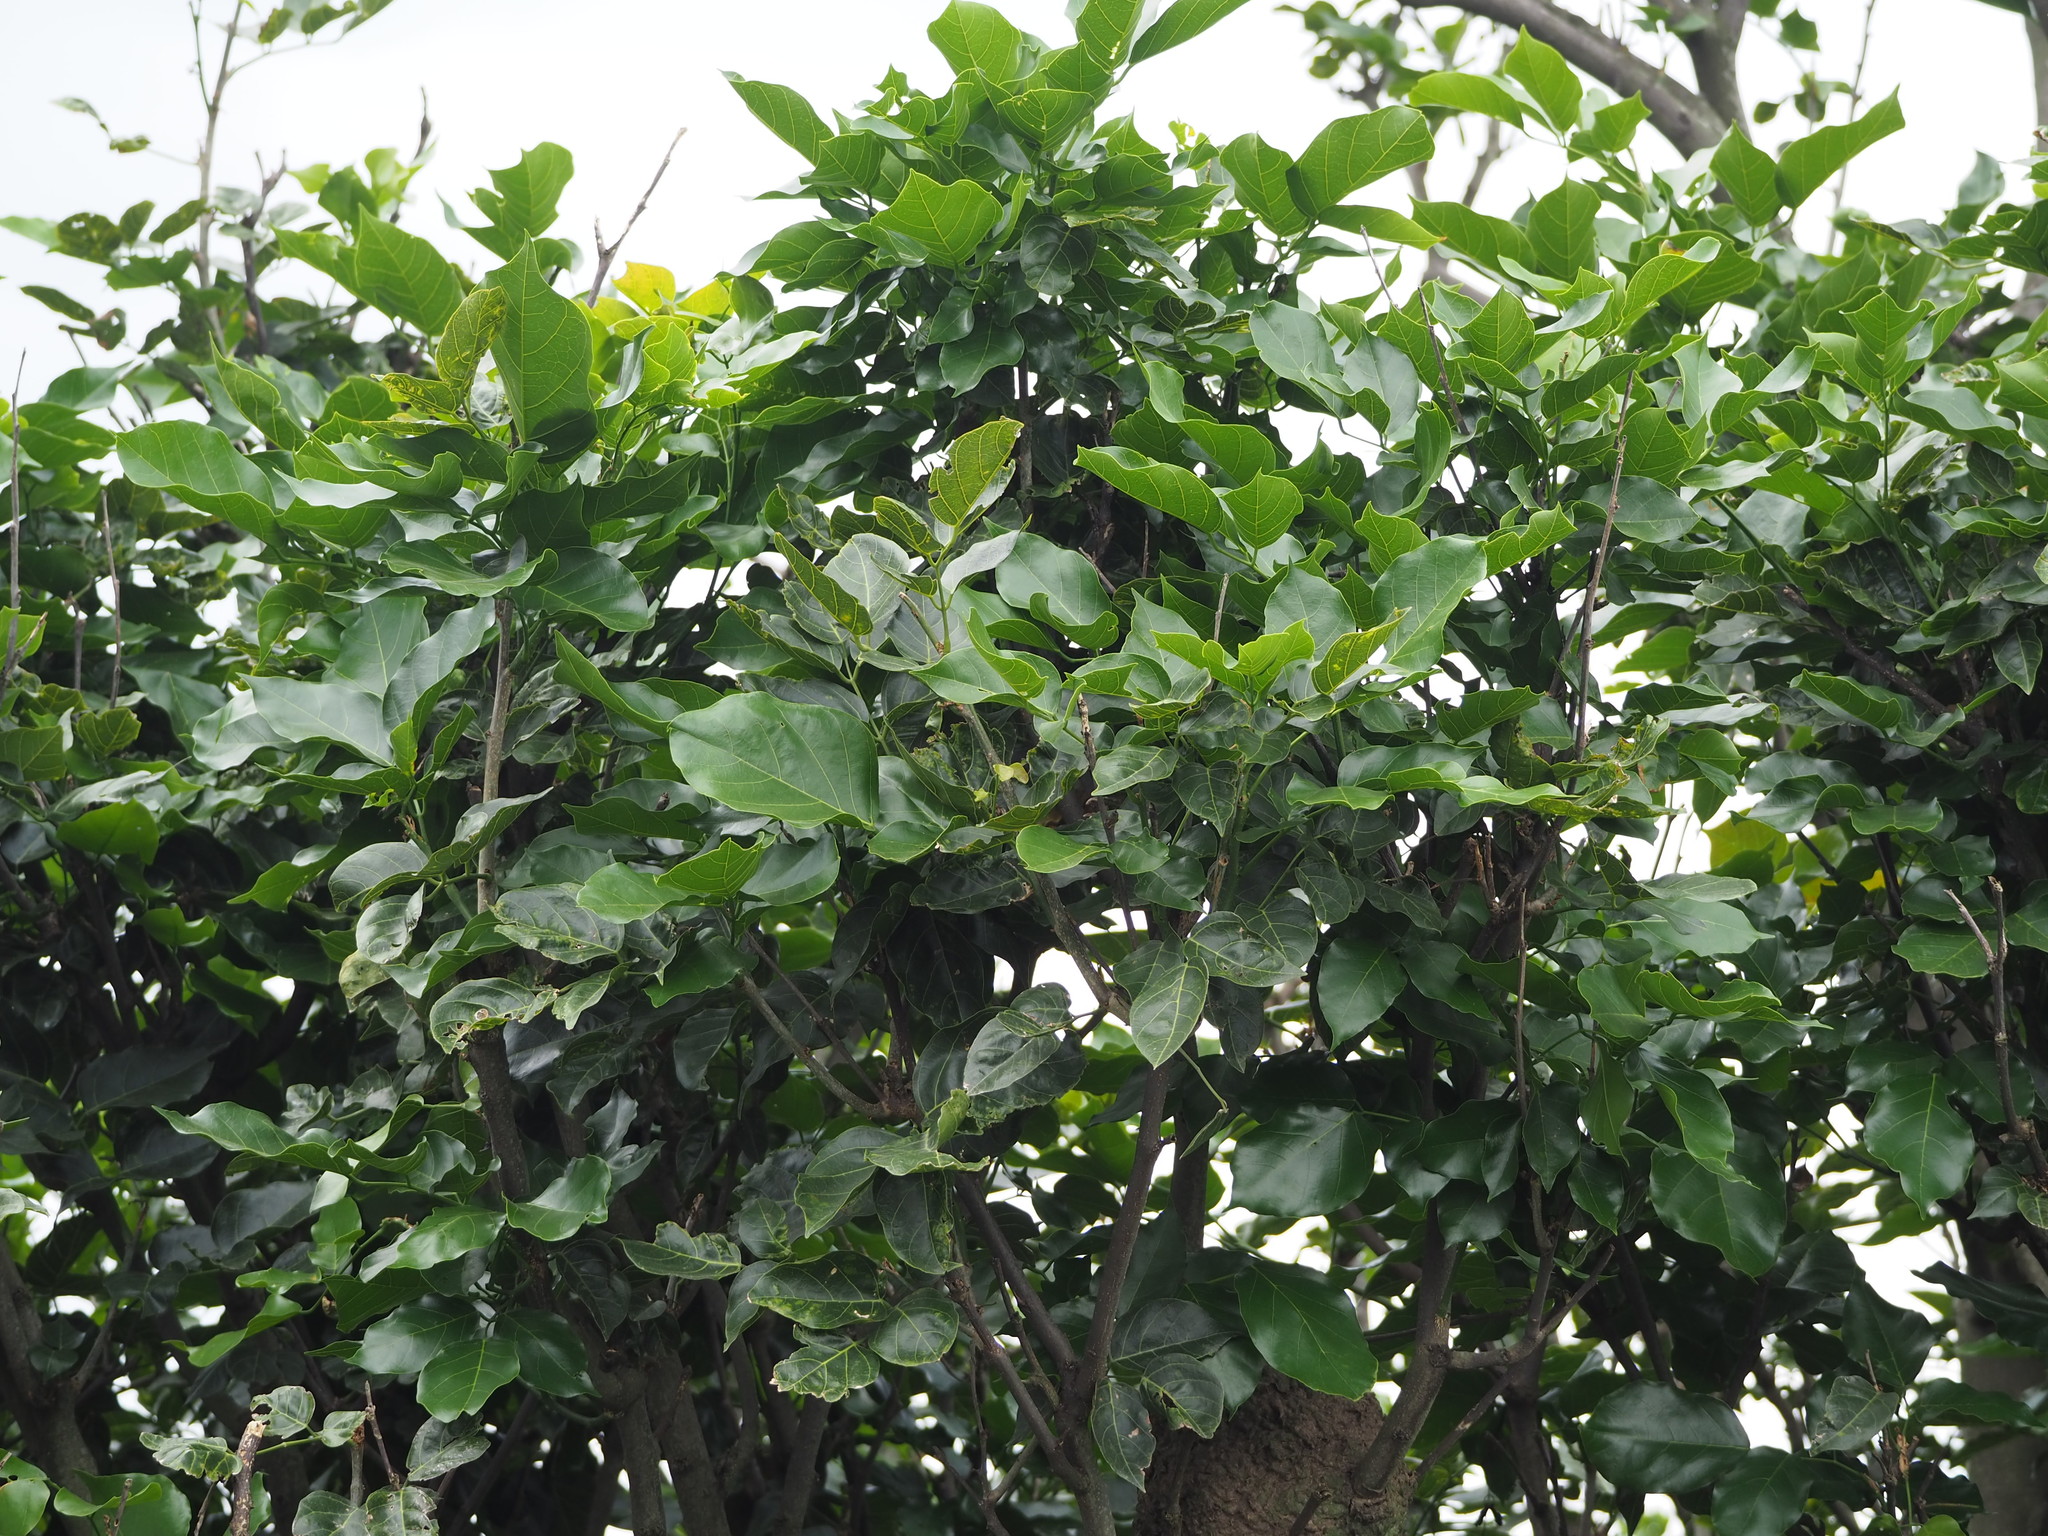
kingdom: Plantae
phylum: Tracheophyta
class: Magnoliopsida
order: Fabales
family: Fabaceae
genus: Pongamia
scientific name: Pongamia pinnata
